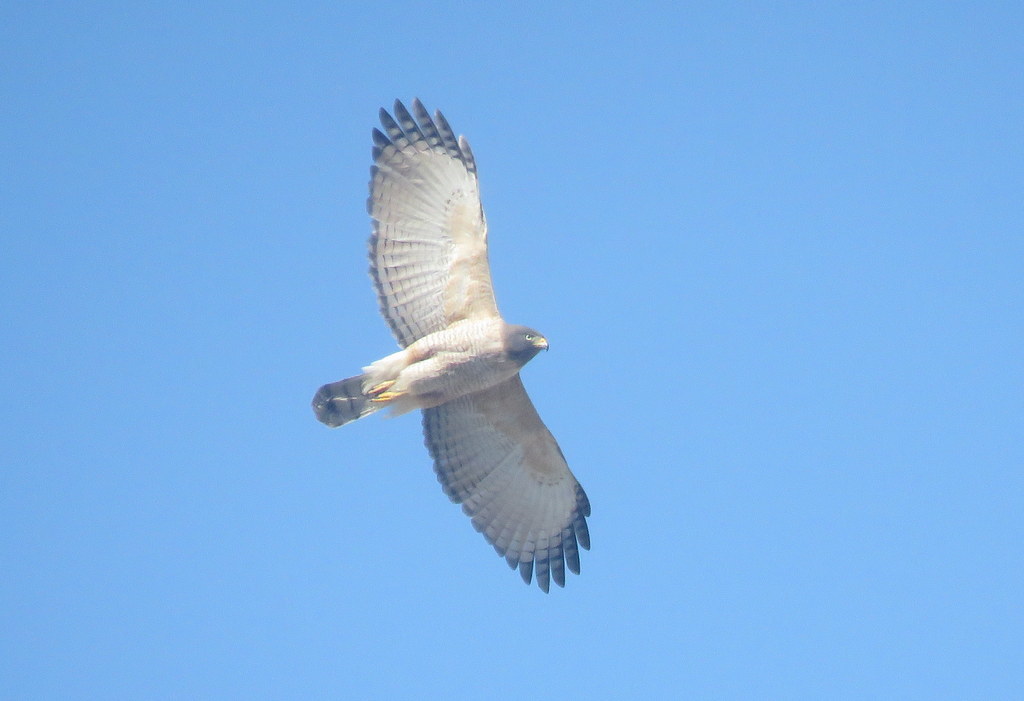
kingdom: Animalia
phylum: Chordata
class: Aves
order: Accipitriformes
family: Accipitridae
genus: Rupornis
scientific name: Rupornis magnirostris
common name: Roadside hawk
